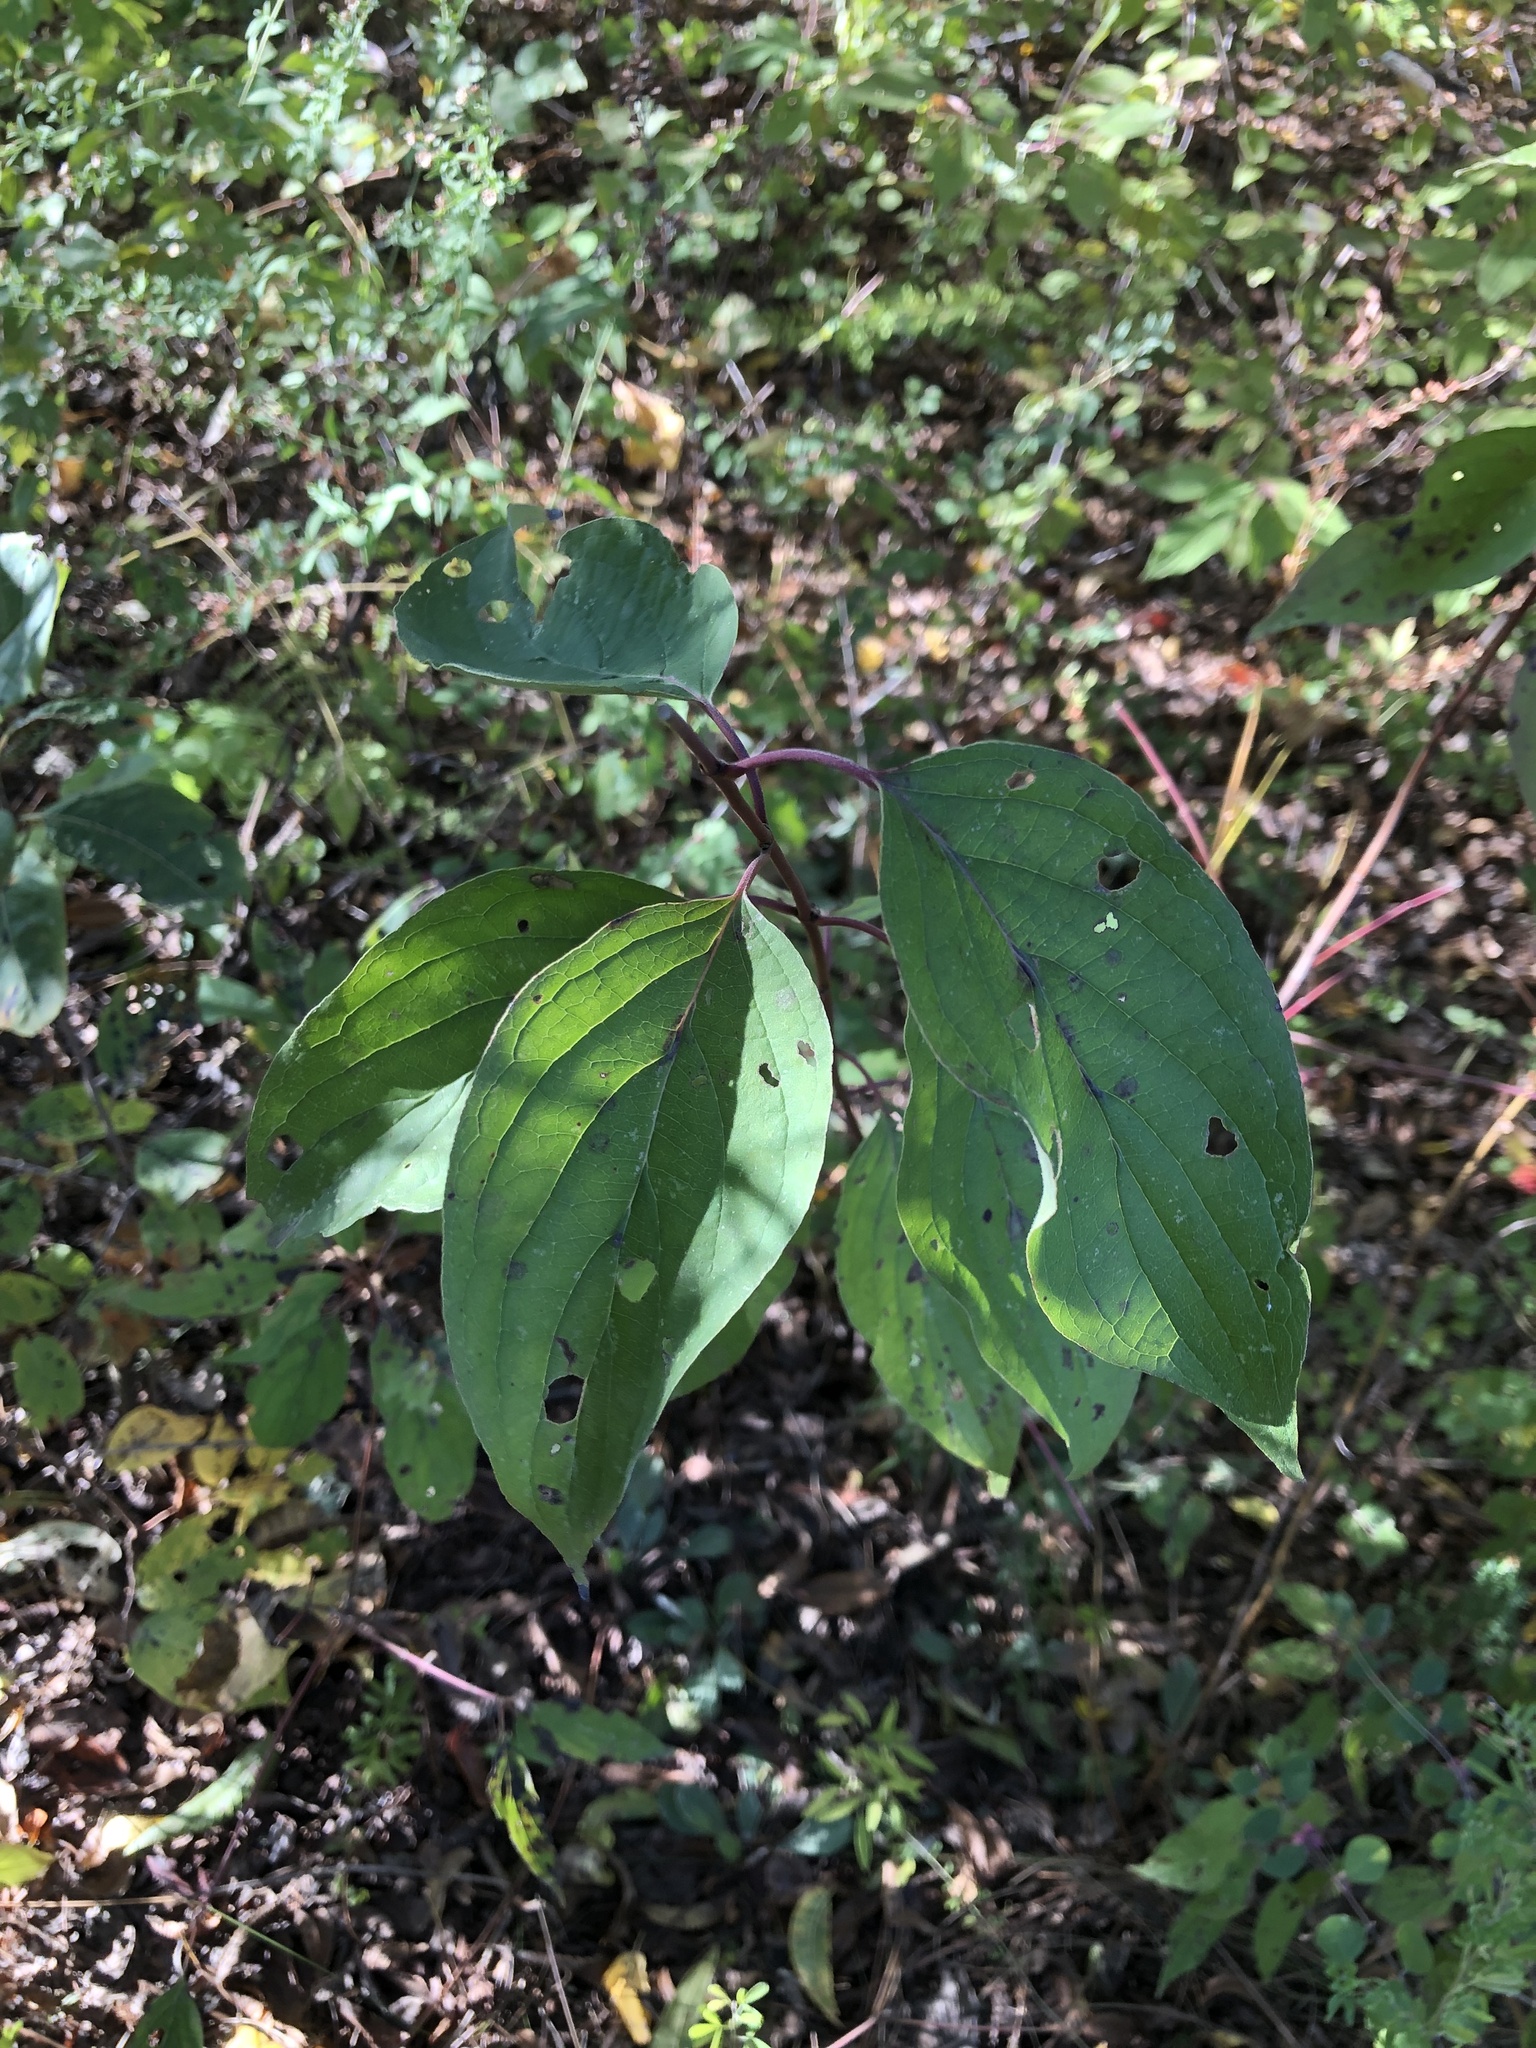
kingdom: Plantae
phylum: Tracheophyta
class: Magnoliopsida
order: Cornales
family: Cornaceae
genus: Cornus
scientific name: Cornus drummondii
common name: Rough-leaf dogwood
